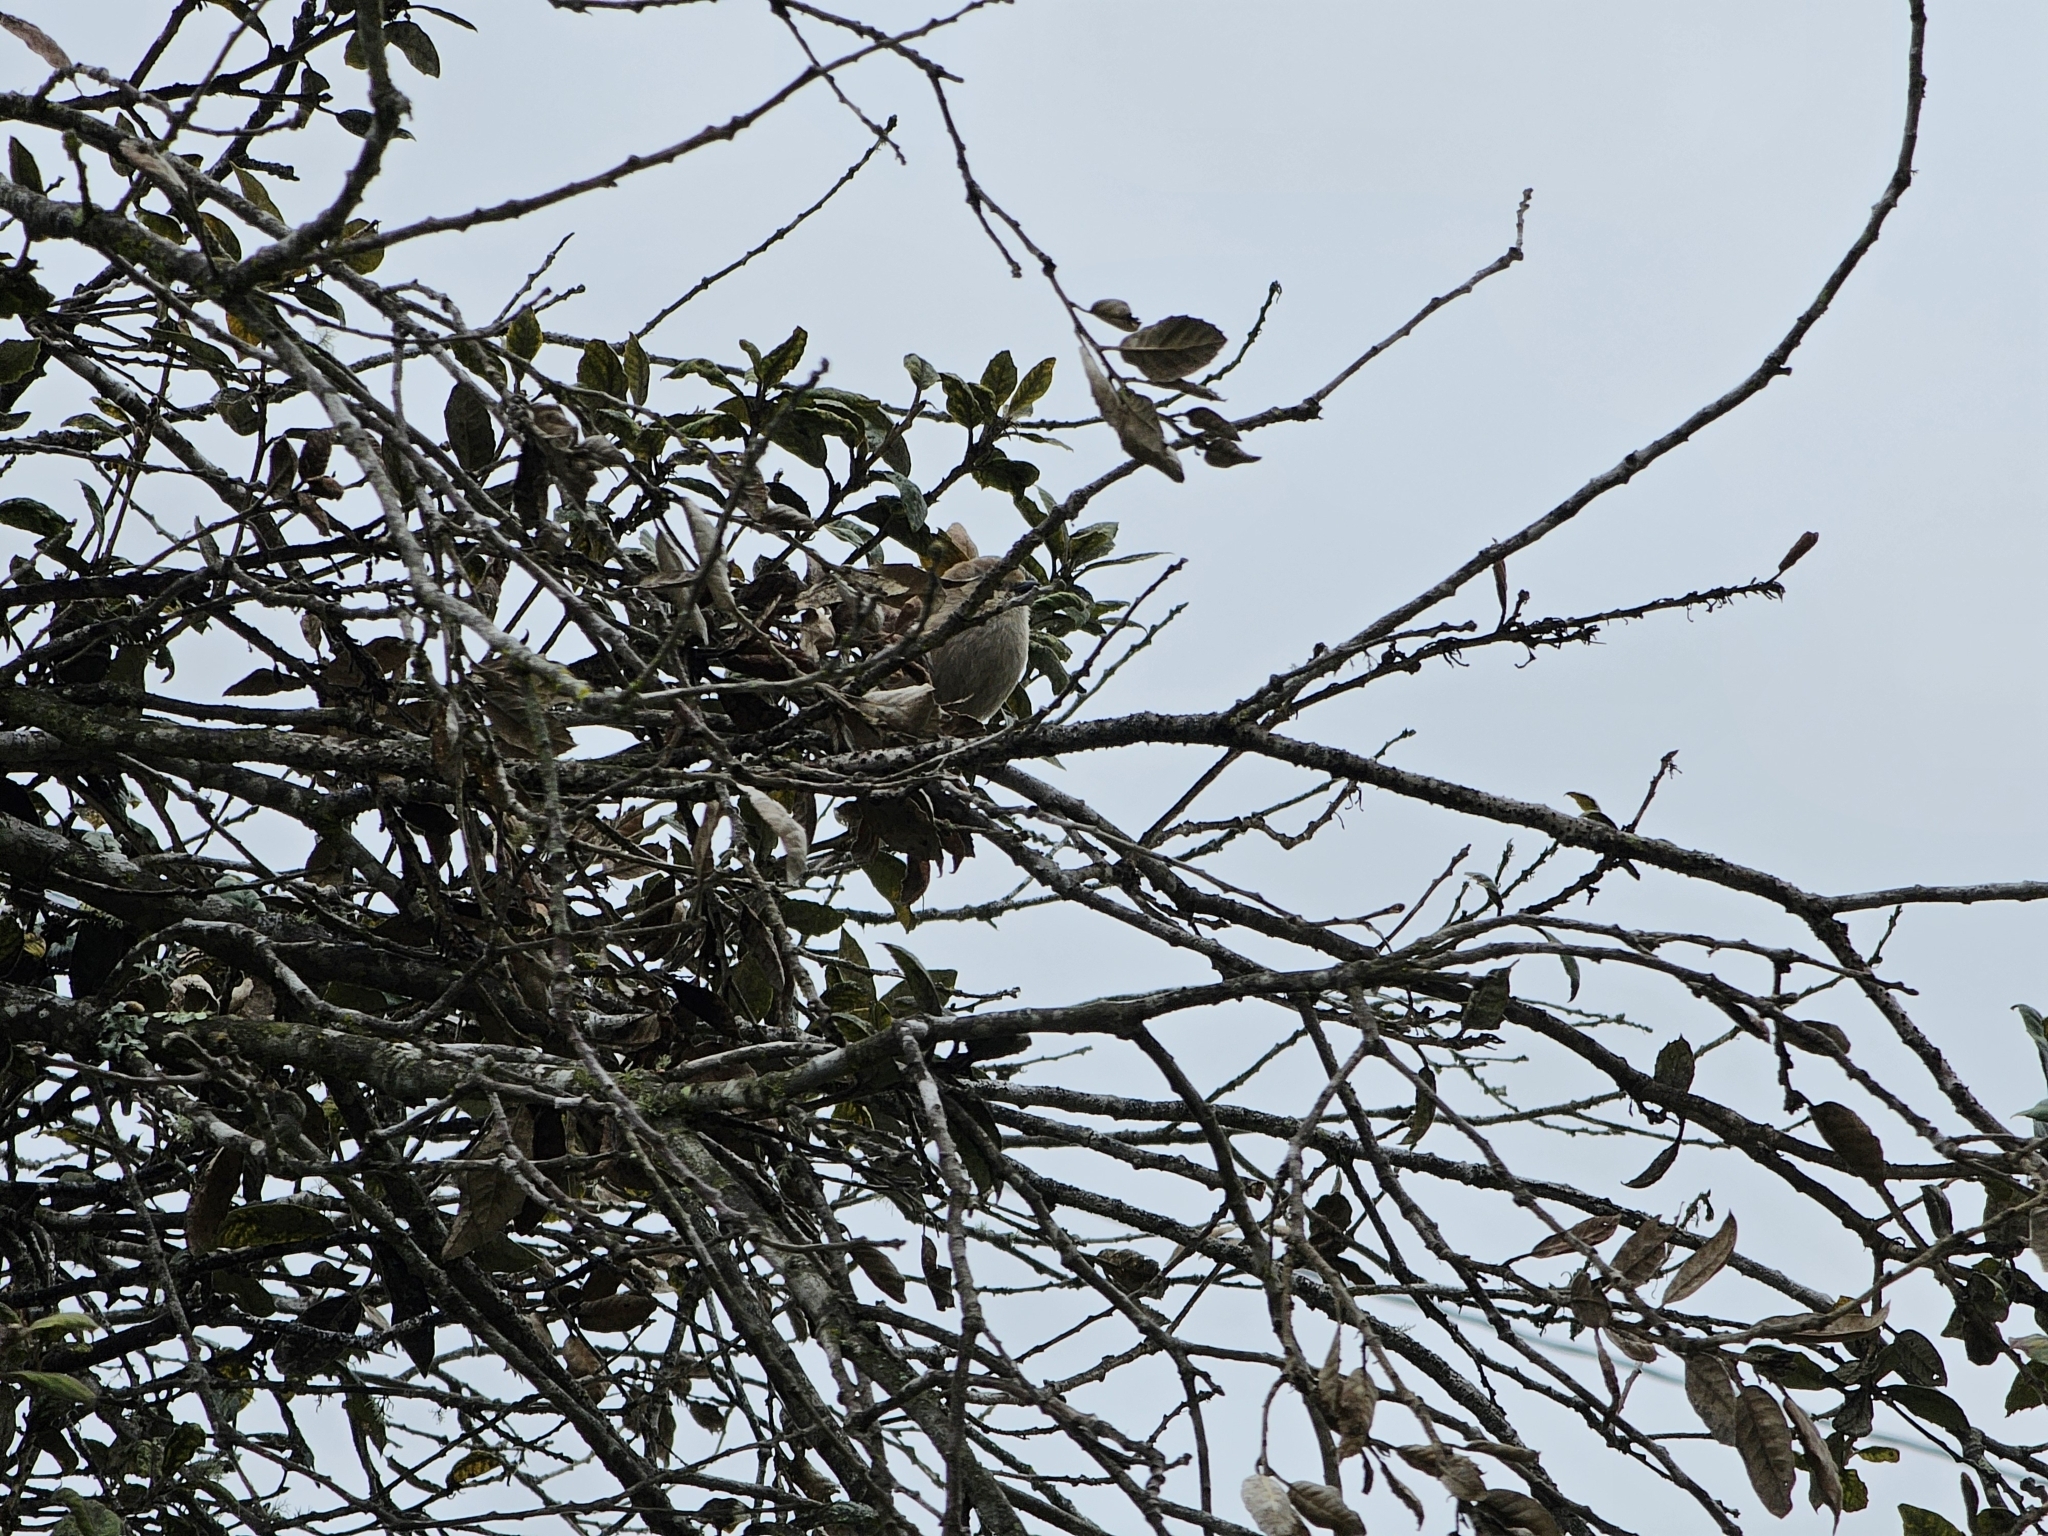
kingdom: Animalia
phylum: Chordata
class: Aves
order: Passeriformes
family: Aegithalidae
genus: Psaltriparus
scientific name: Psaltriparus minimus
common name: American bushtit
